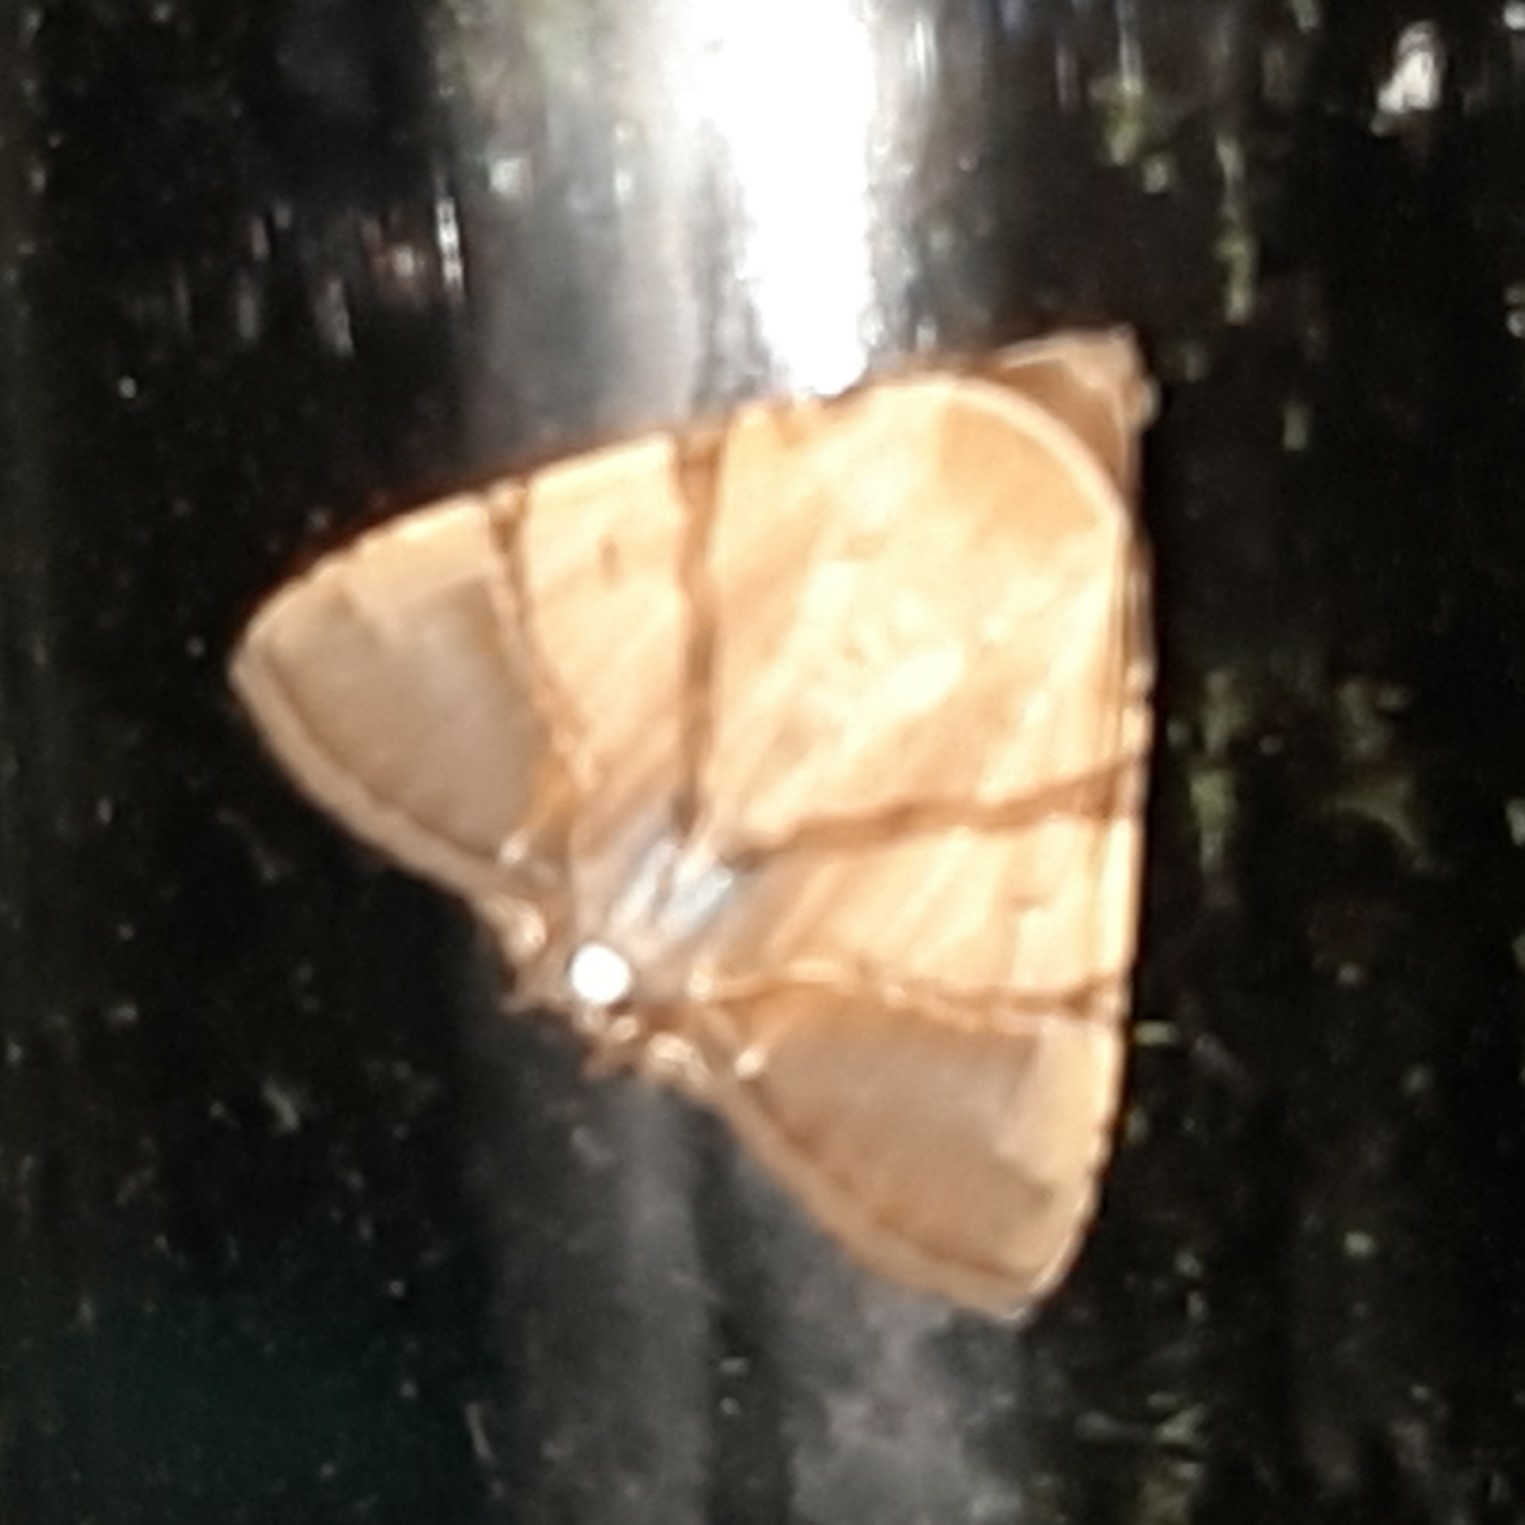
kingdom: Animalia
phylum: Arthropoda
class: Insecta
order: Lepidoptera
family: Erebidae
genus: Eulepidotis
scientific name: Eulepidotis juncida
